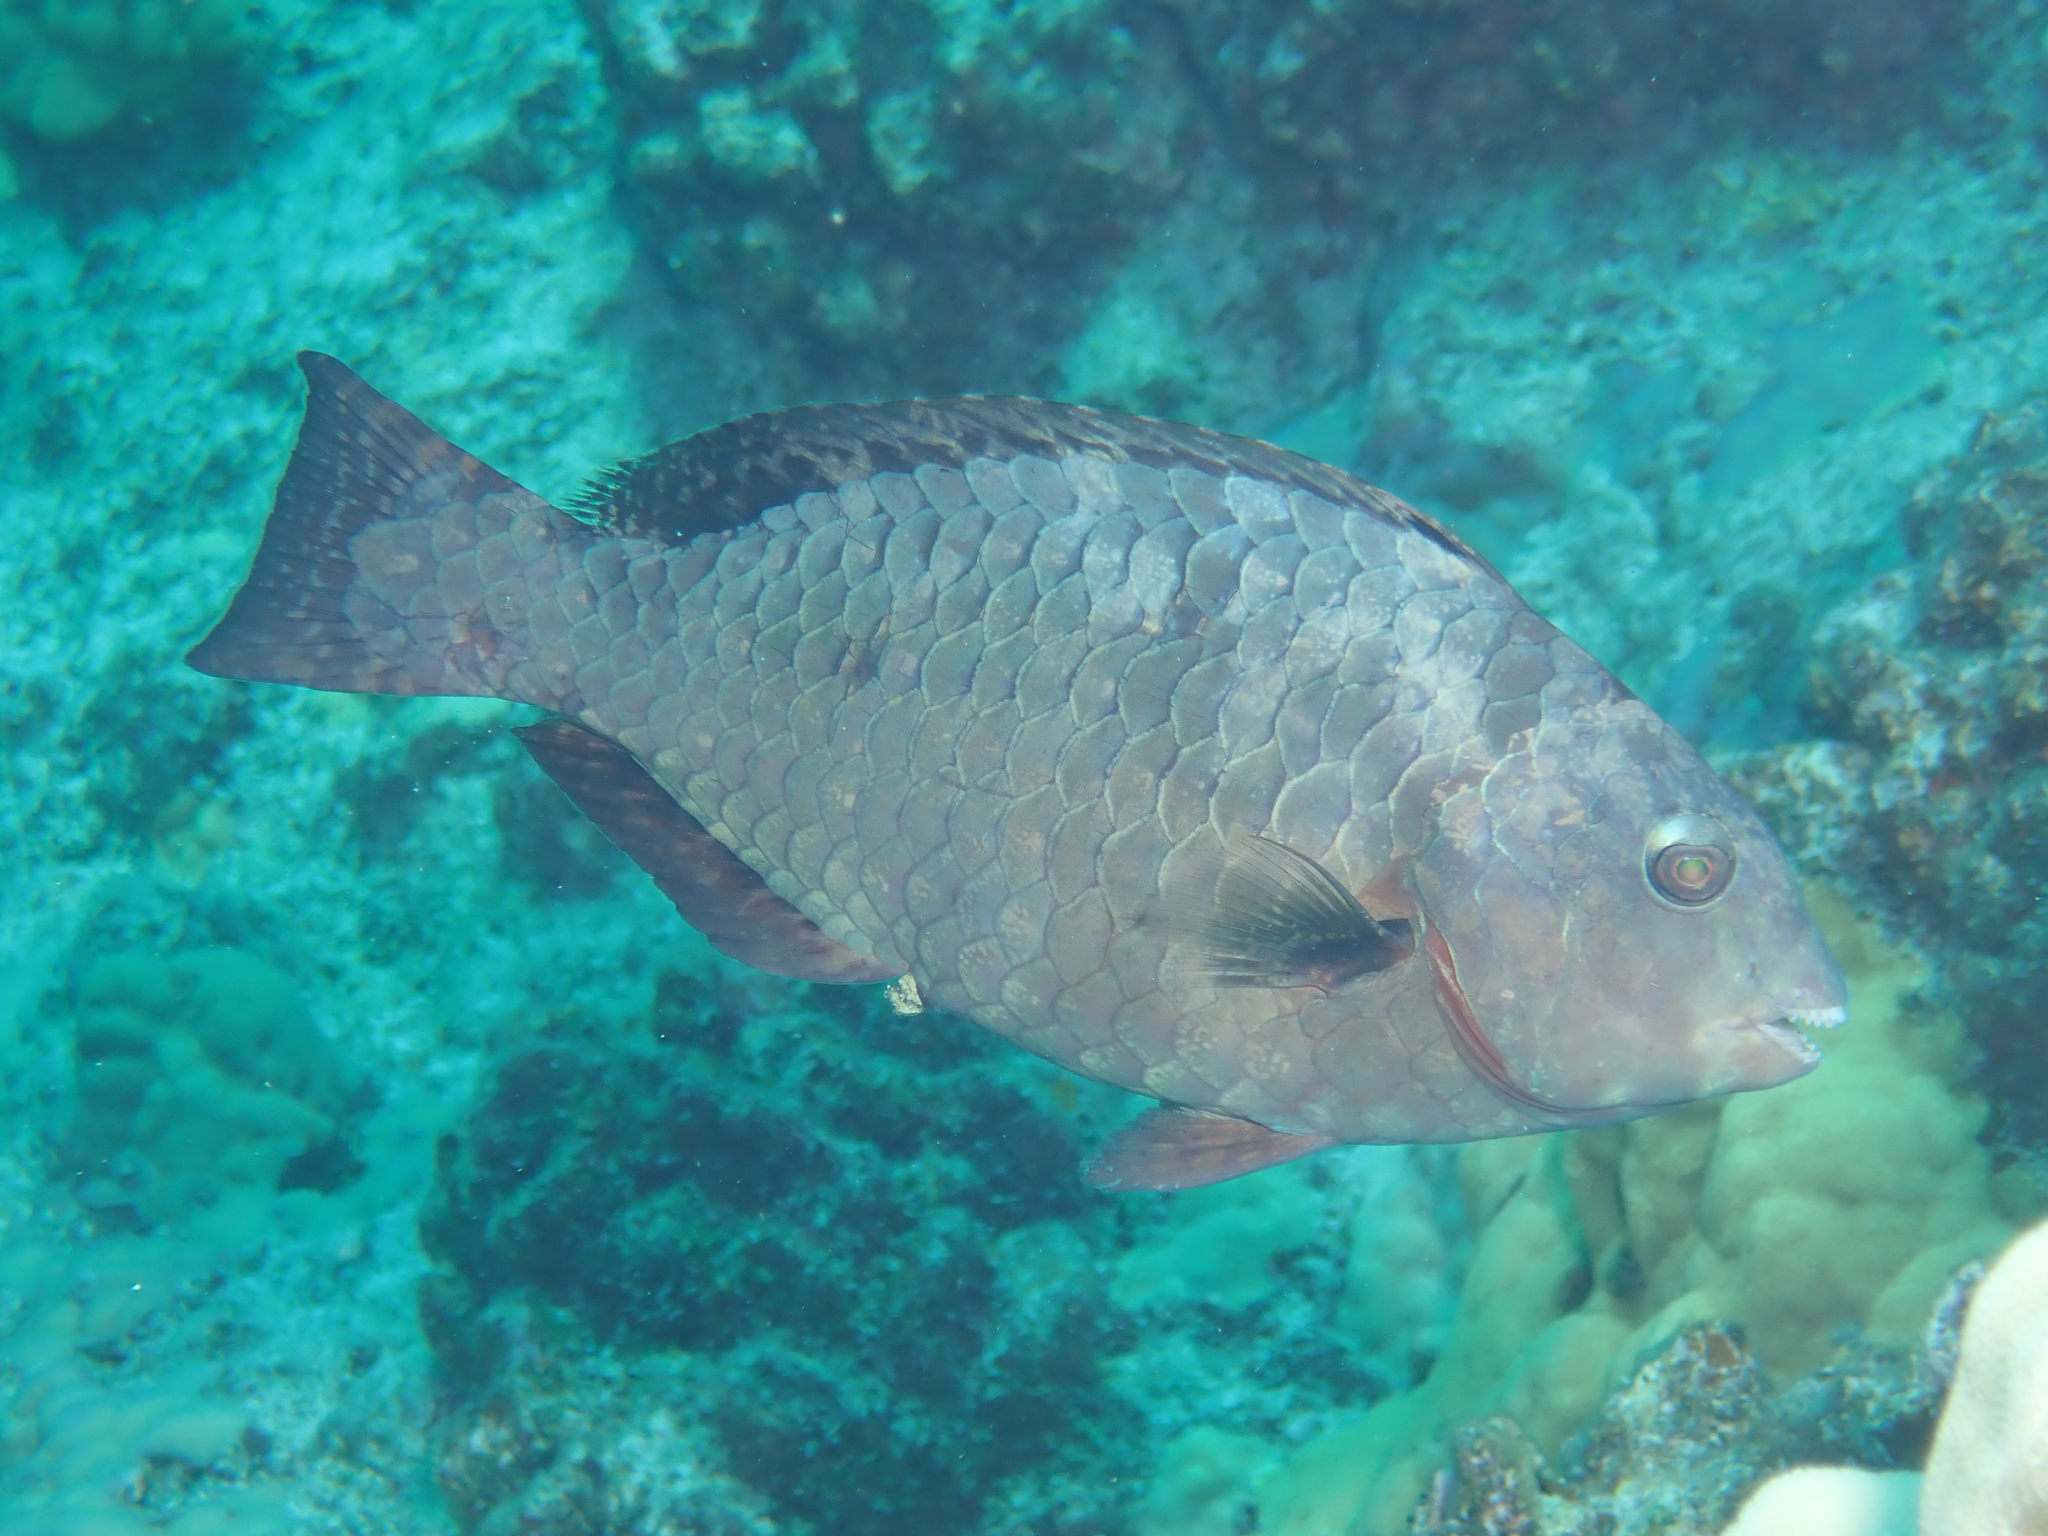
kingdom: Animalia
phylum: Chordata
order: Perciformes
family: Scaridae
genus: Calotomus
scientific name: Calotomus carolinus
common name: Bucktooth
